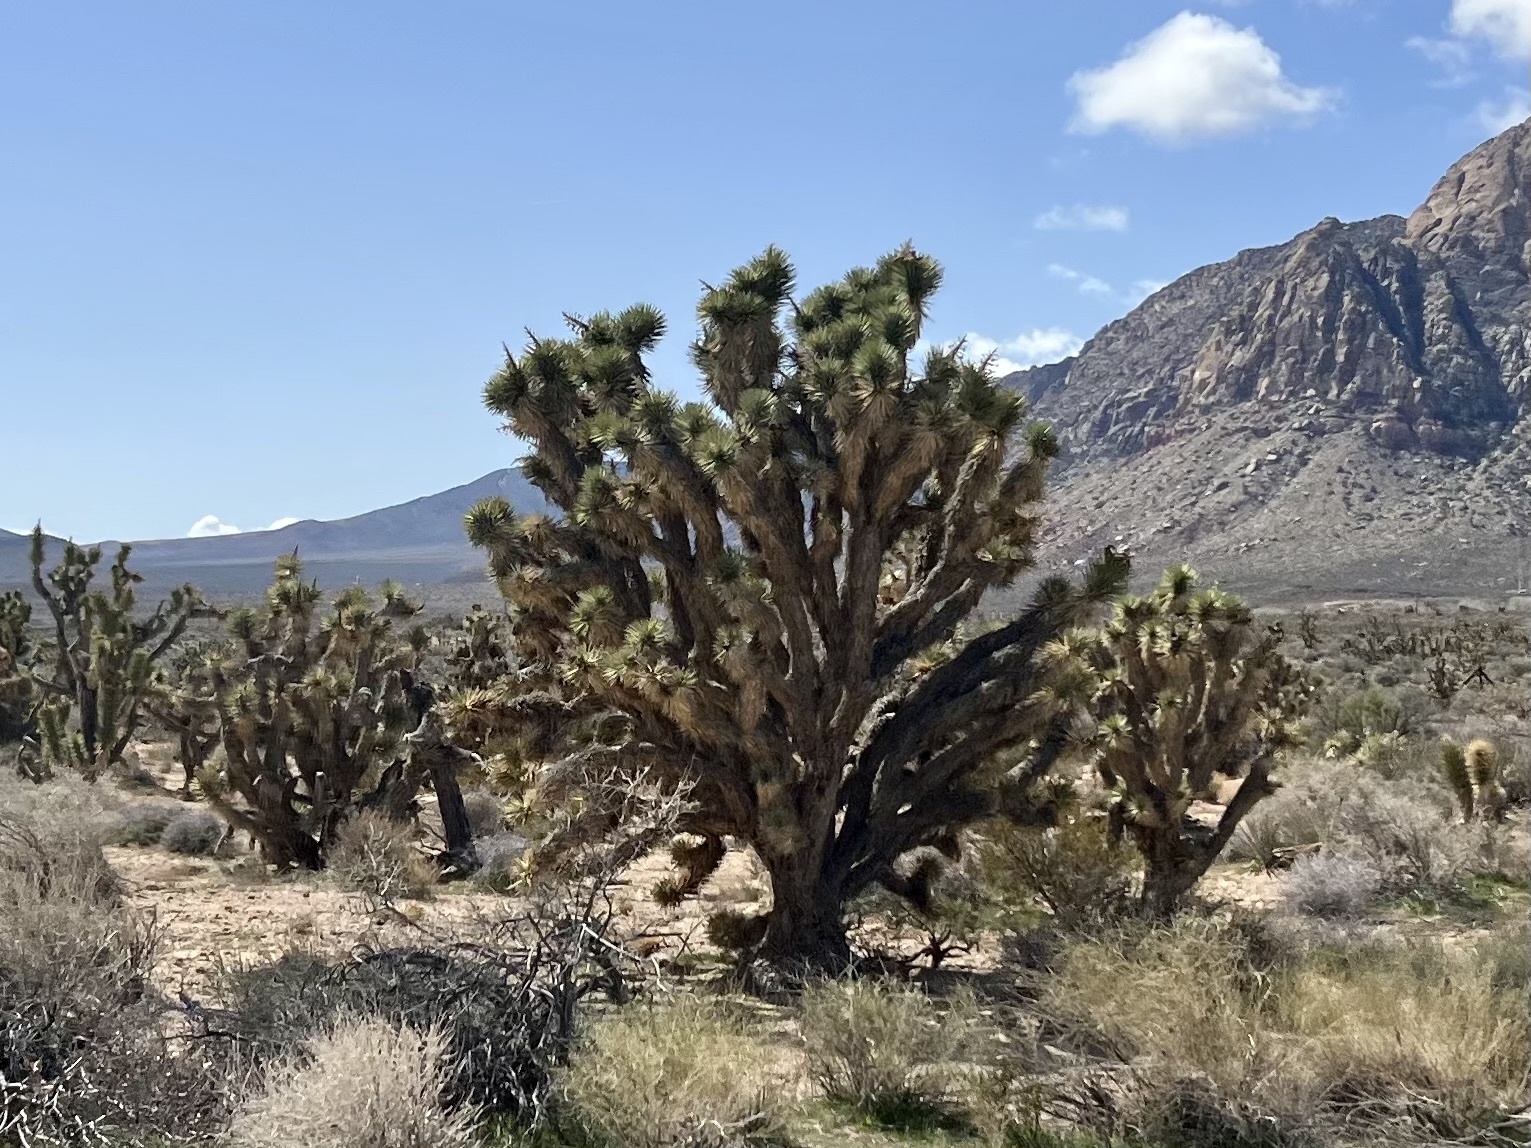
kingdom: Plantae
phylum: Tracheophyta
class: Liliopsida
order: Asparagales
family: Asparagaceae
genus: Yucca
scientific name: Yucca brevifolia
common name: Joshua tree
